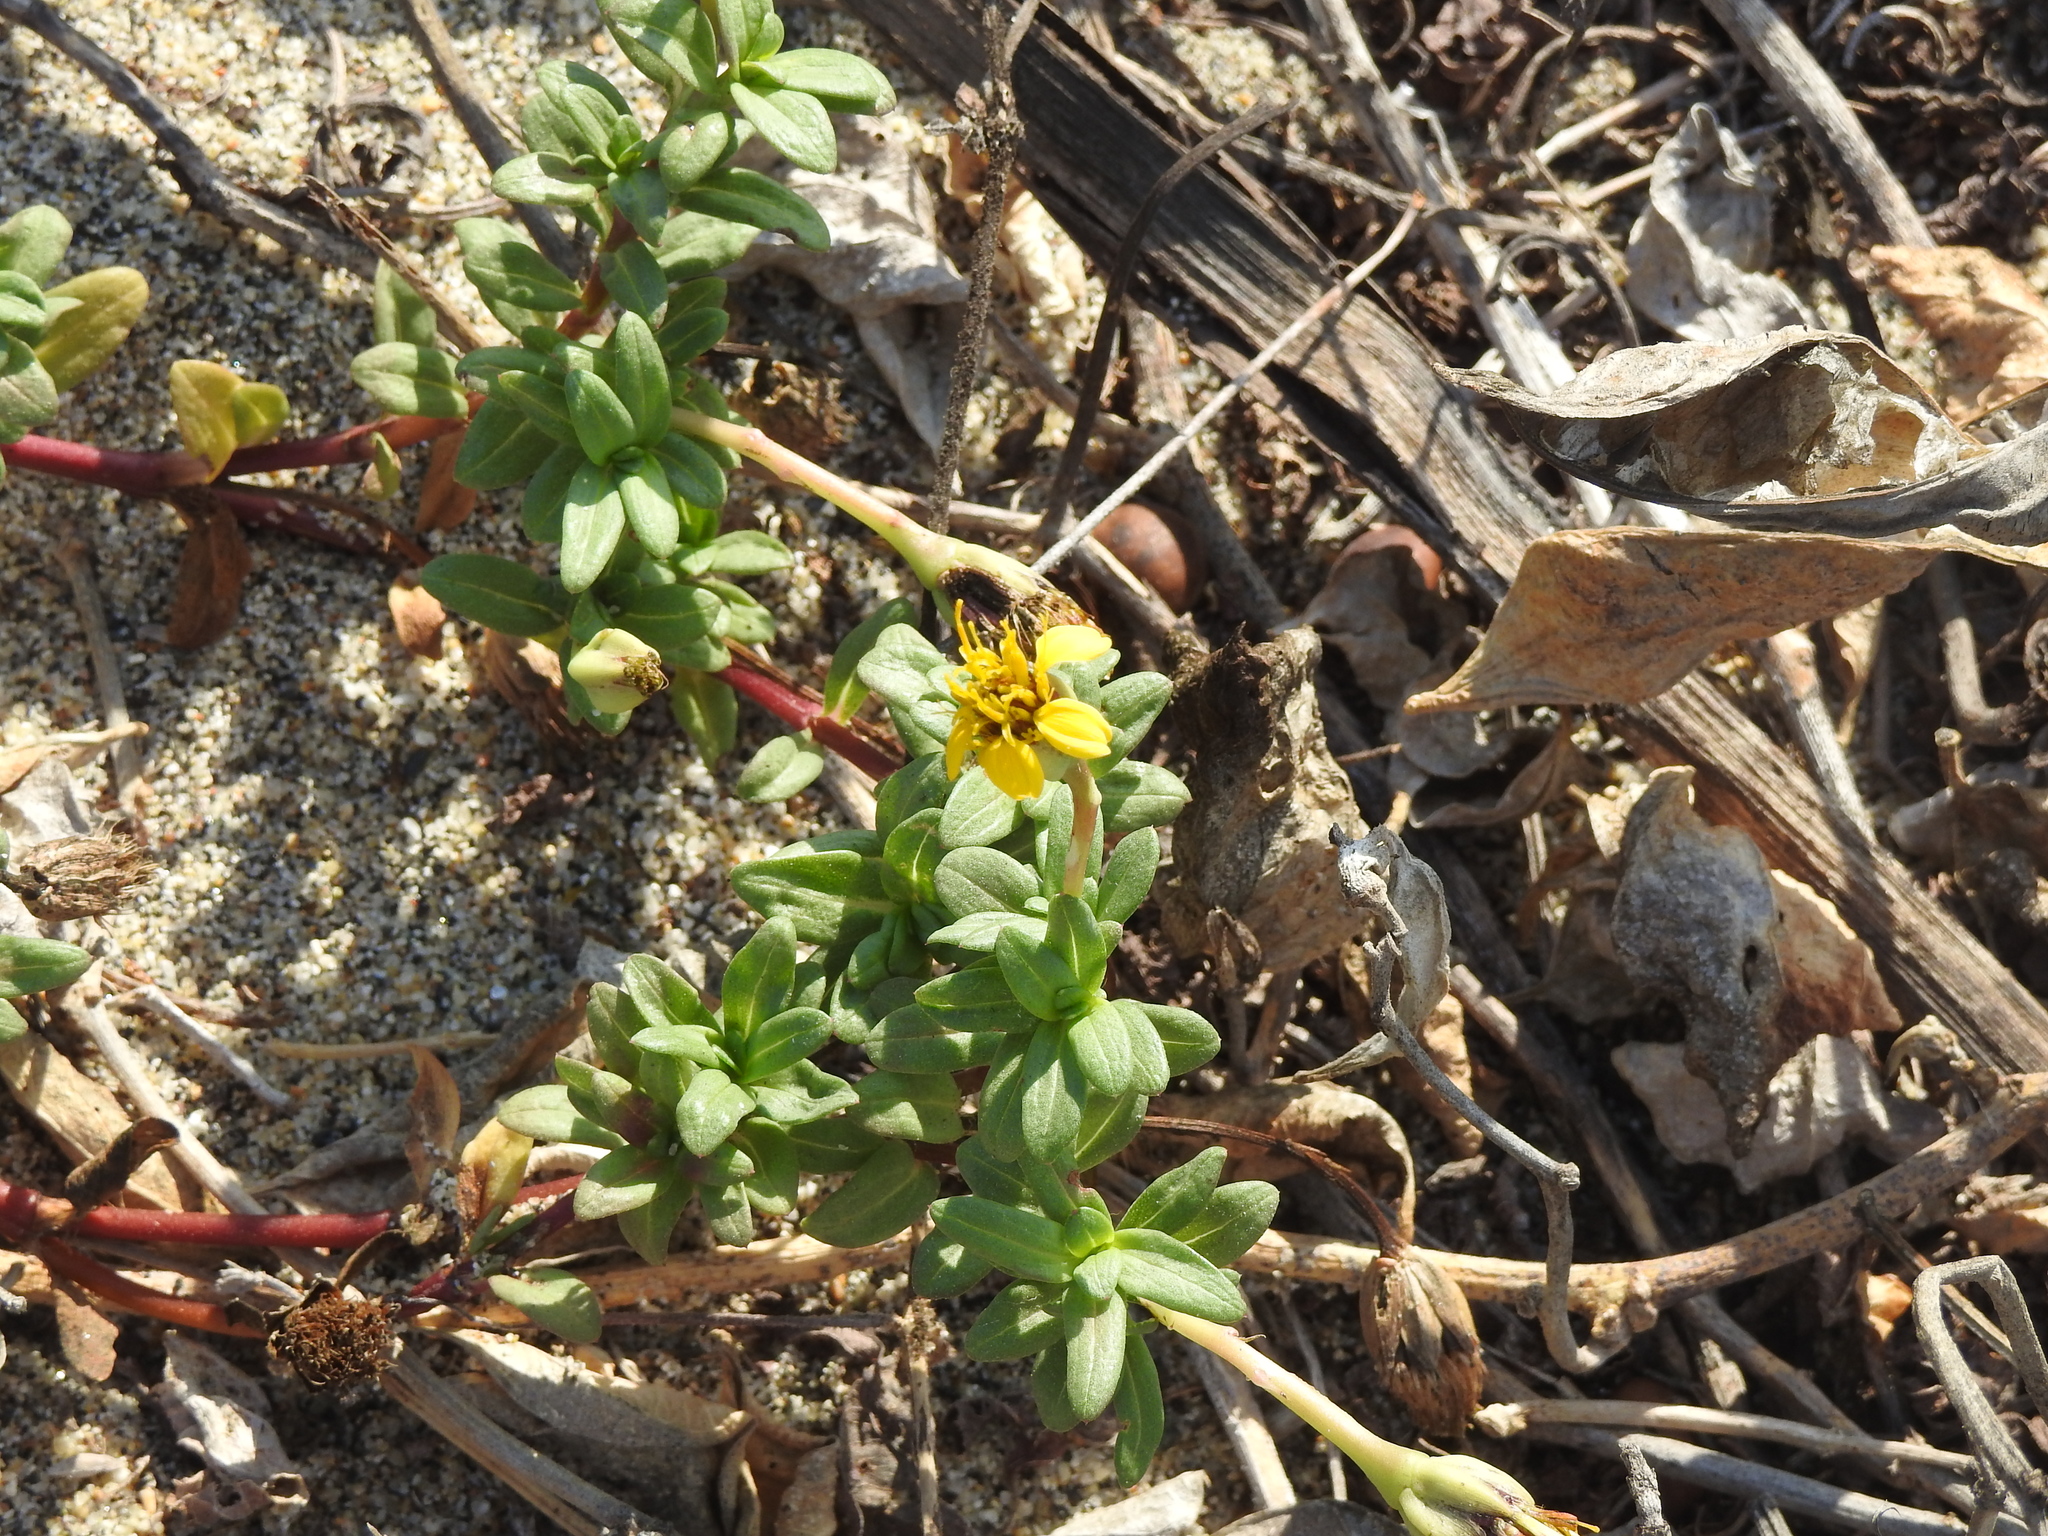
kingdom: Plantae
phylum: Tracheophyta
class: Magnoliopsida
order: Asterales
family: Asteraceae
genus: Pectis
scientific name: Pectis liebmannii
